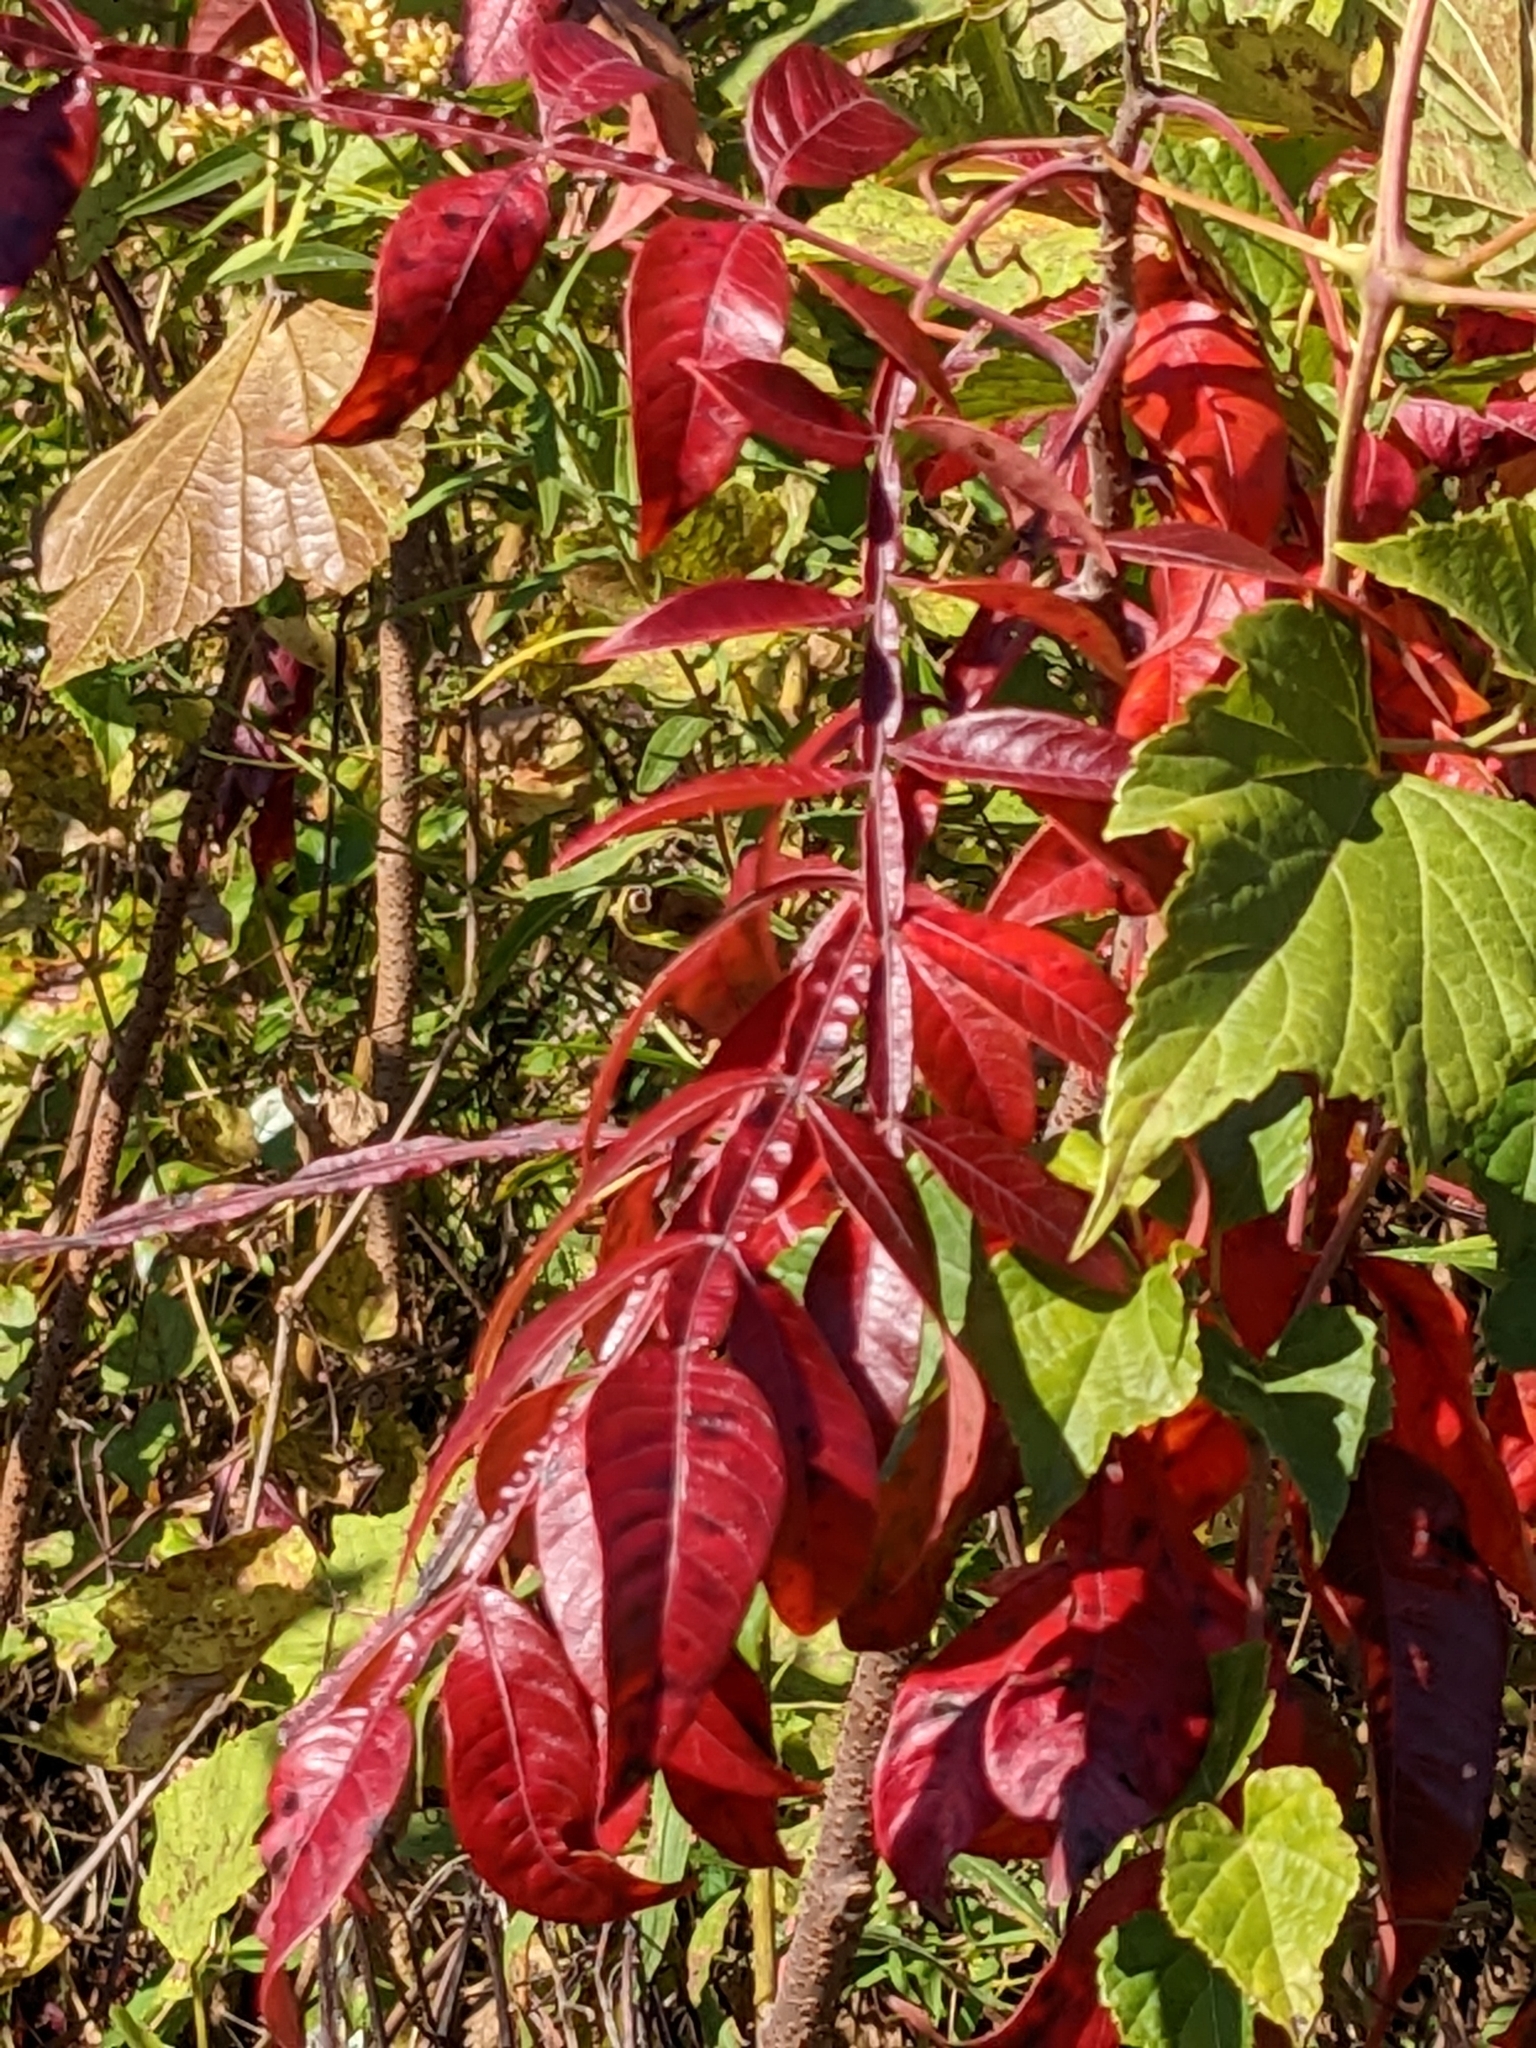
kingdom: Plantae
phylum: Tracheophyta
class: Magnoliopsida
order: Sapindales
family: Anacardiaceae
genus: Rhus
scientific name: Rhus copallina
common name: Shining sumac
